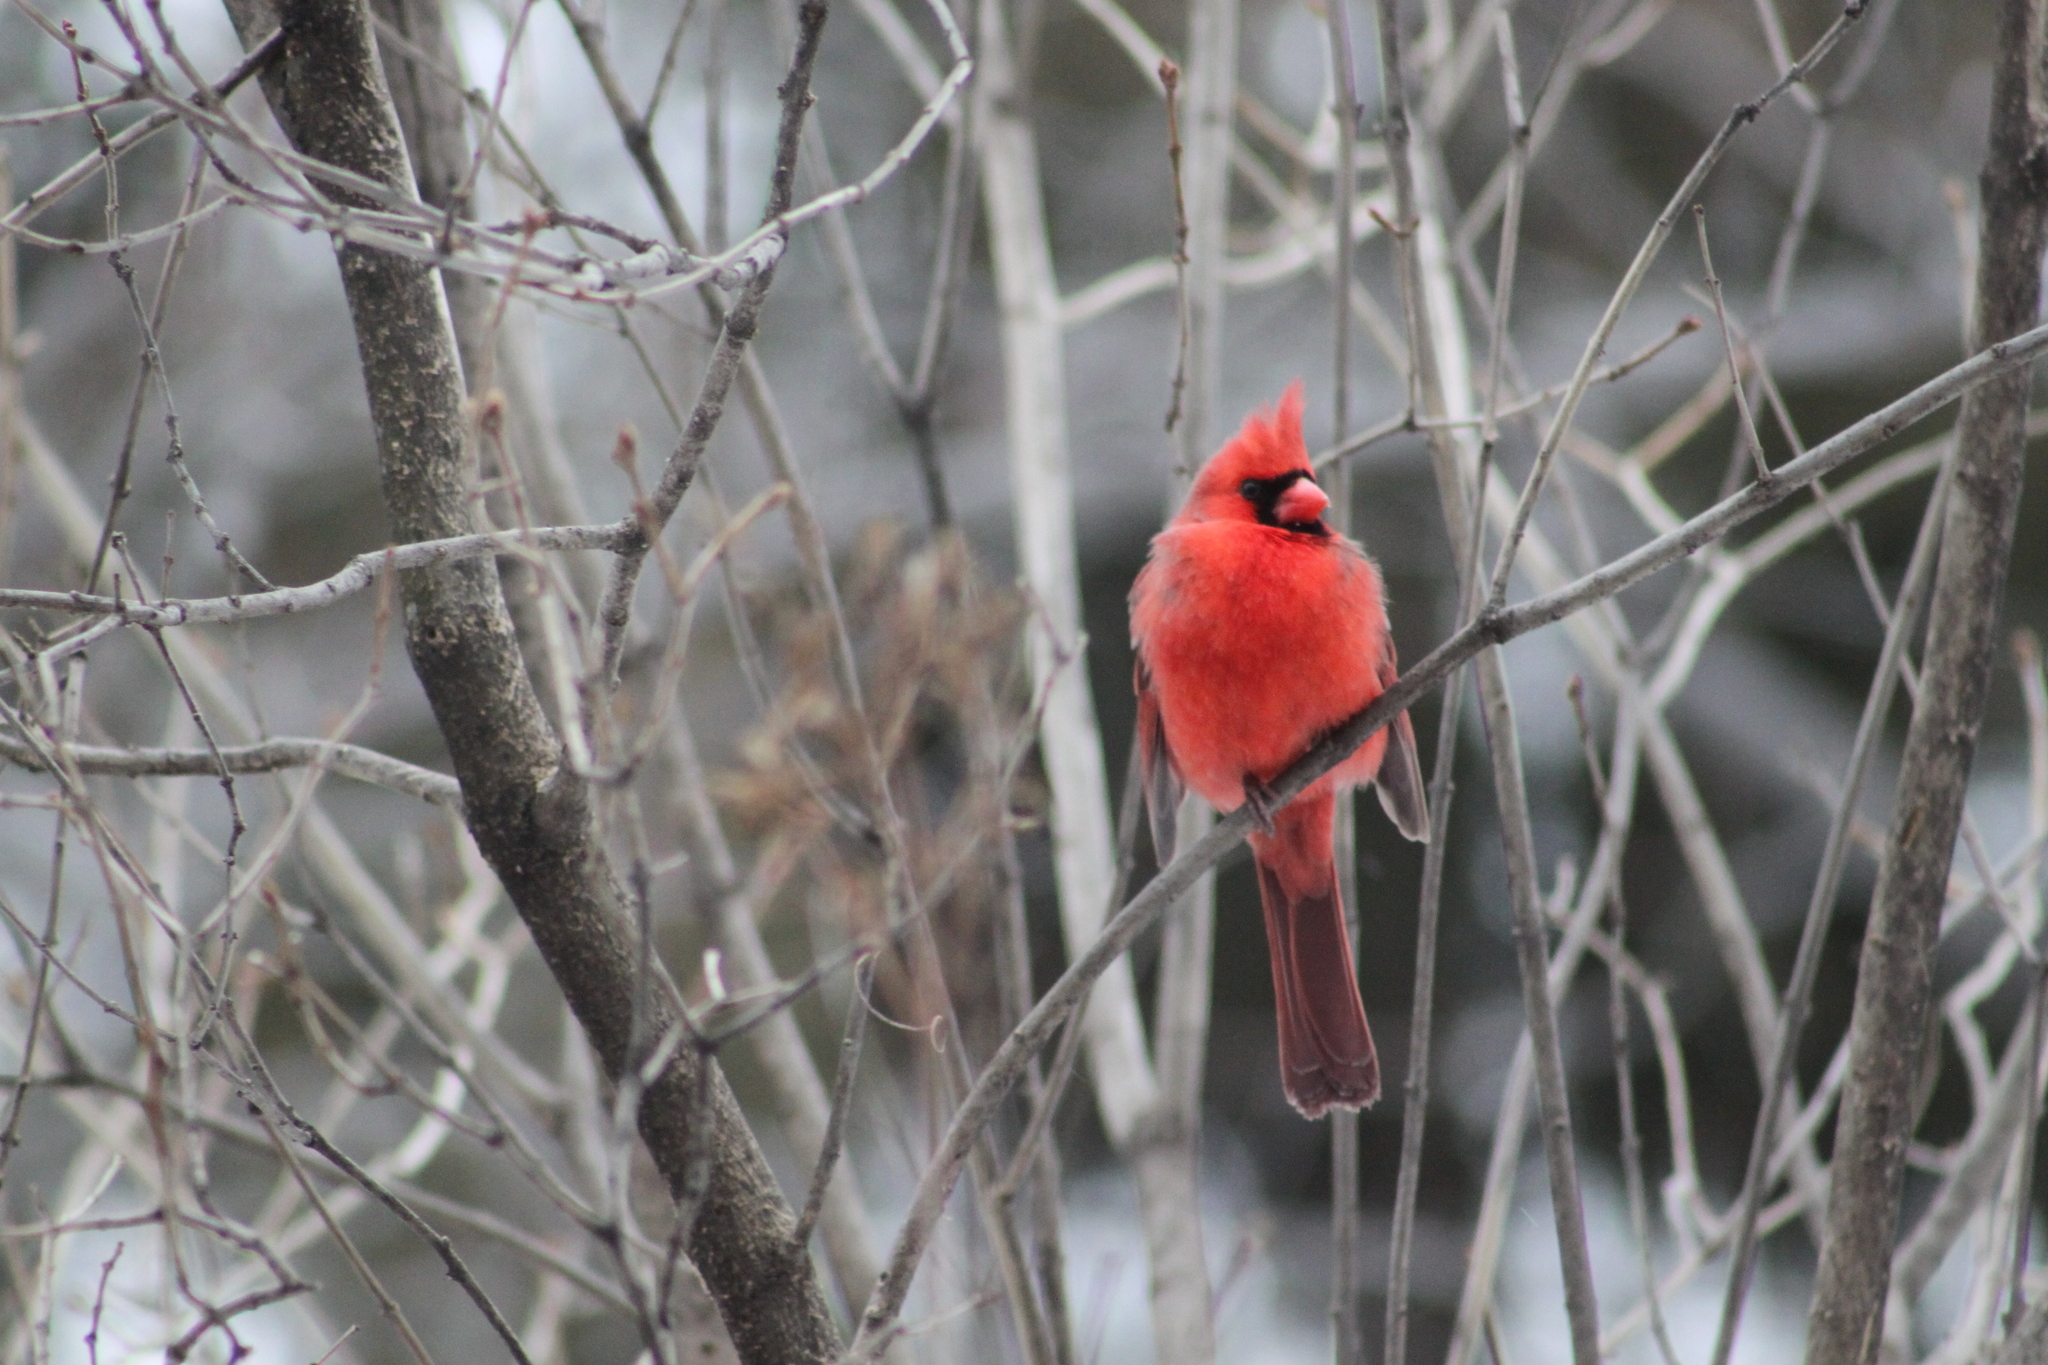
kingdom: Animalia
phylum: Chordata
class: Aves
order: Passeriformes
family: Cardinalidae
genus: Cardinalis
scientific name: Cardinalis cardinalis
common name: Northern cardinal
